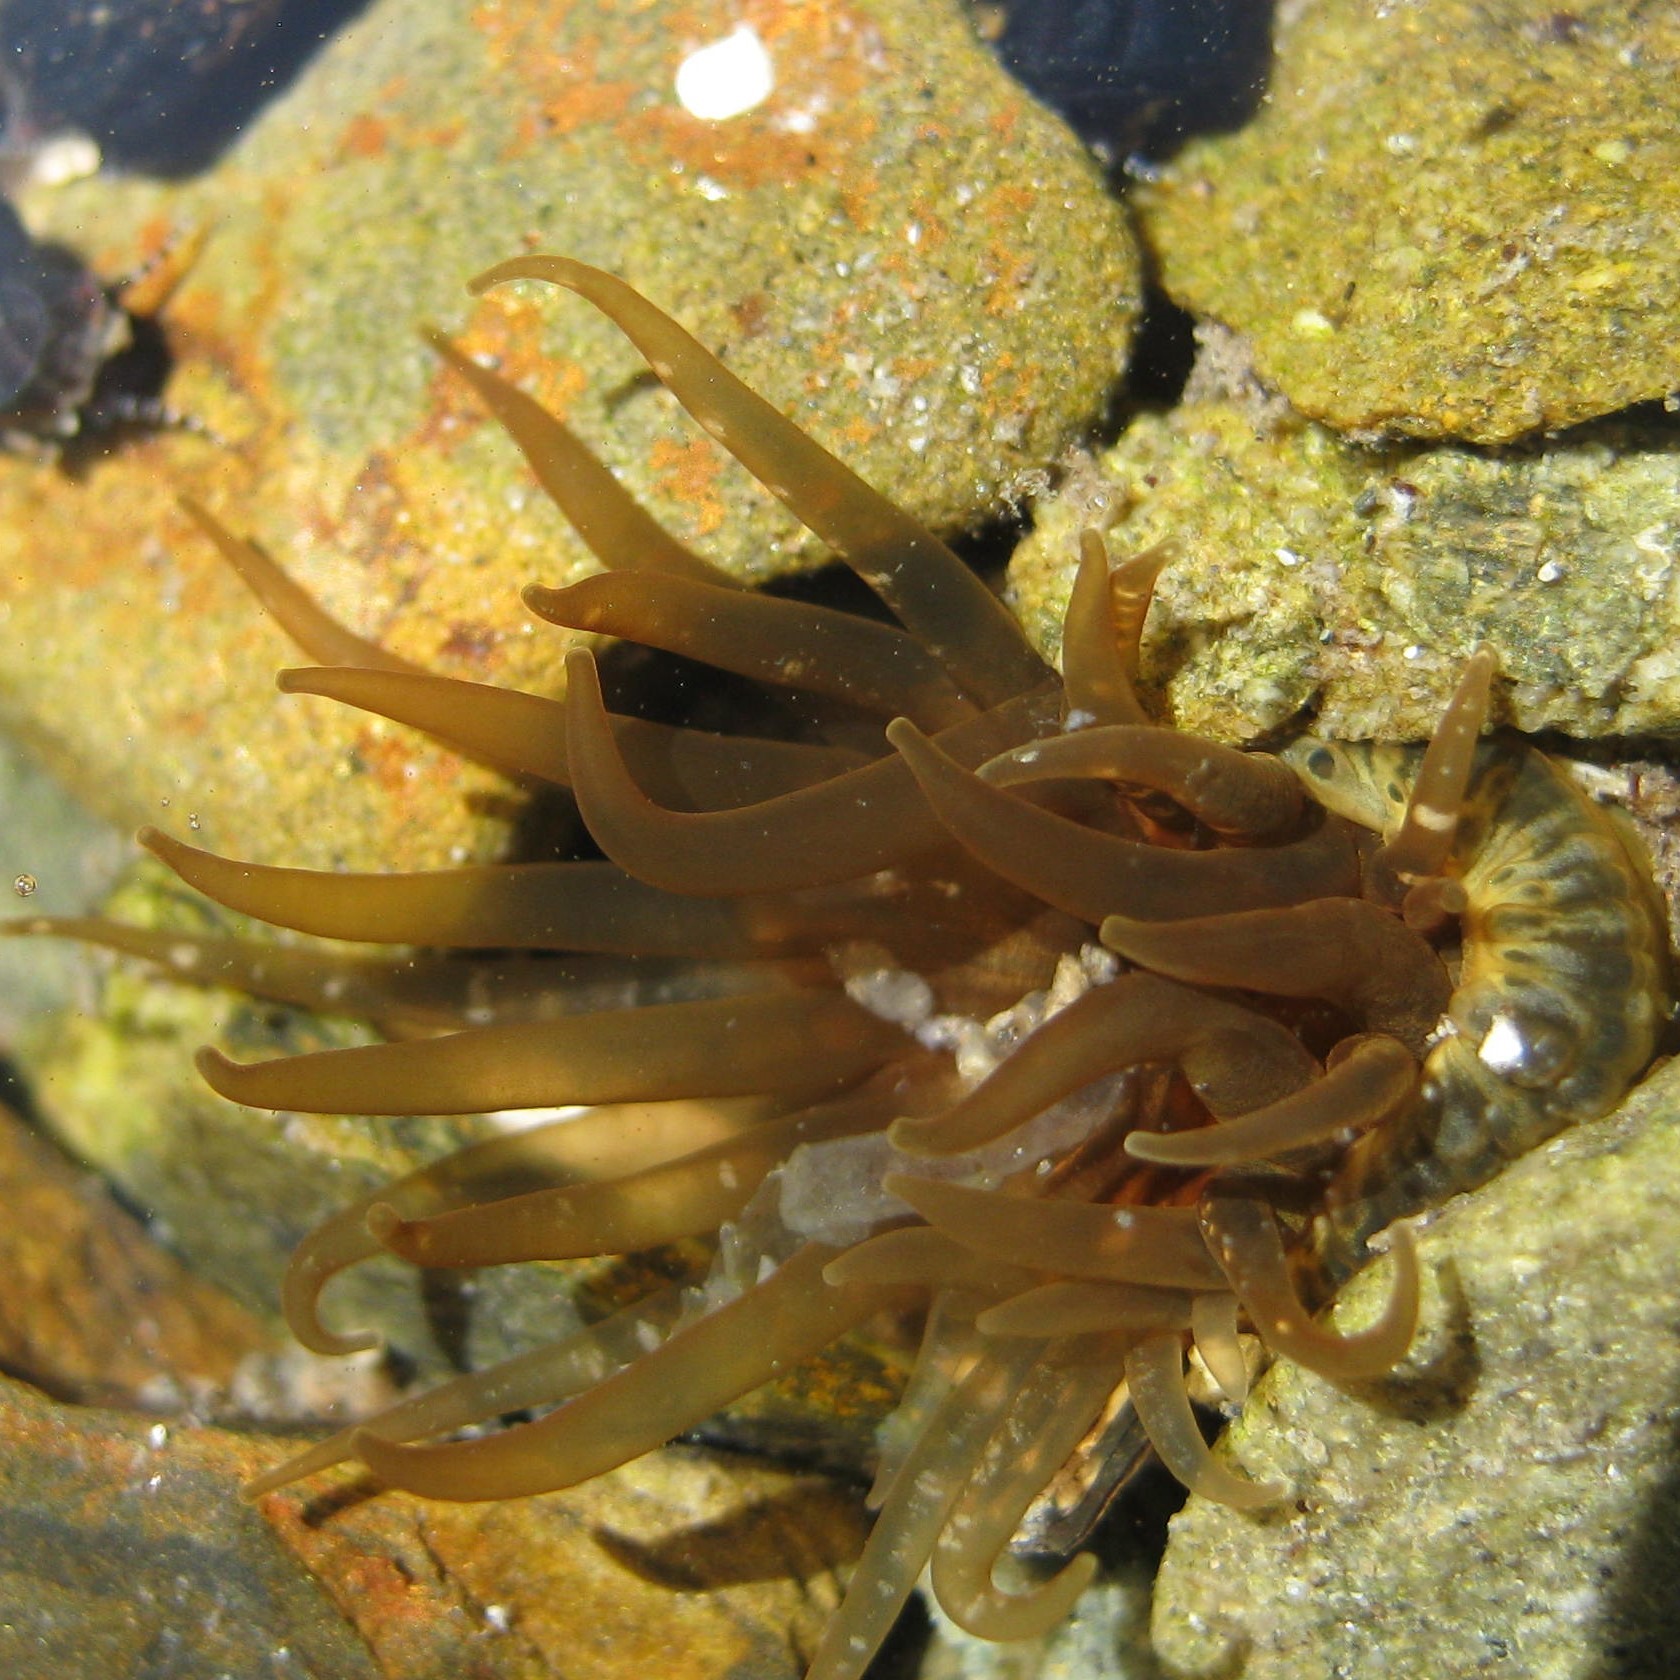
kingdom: Animalia
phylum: Cnidaria
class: Anthozoa
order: Actiniaria
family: Actiniidae
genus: Isactinia
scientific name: Isactinia olivacea
